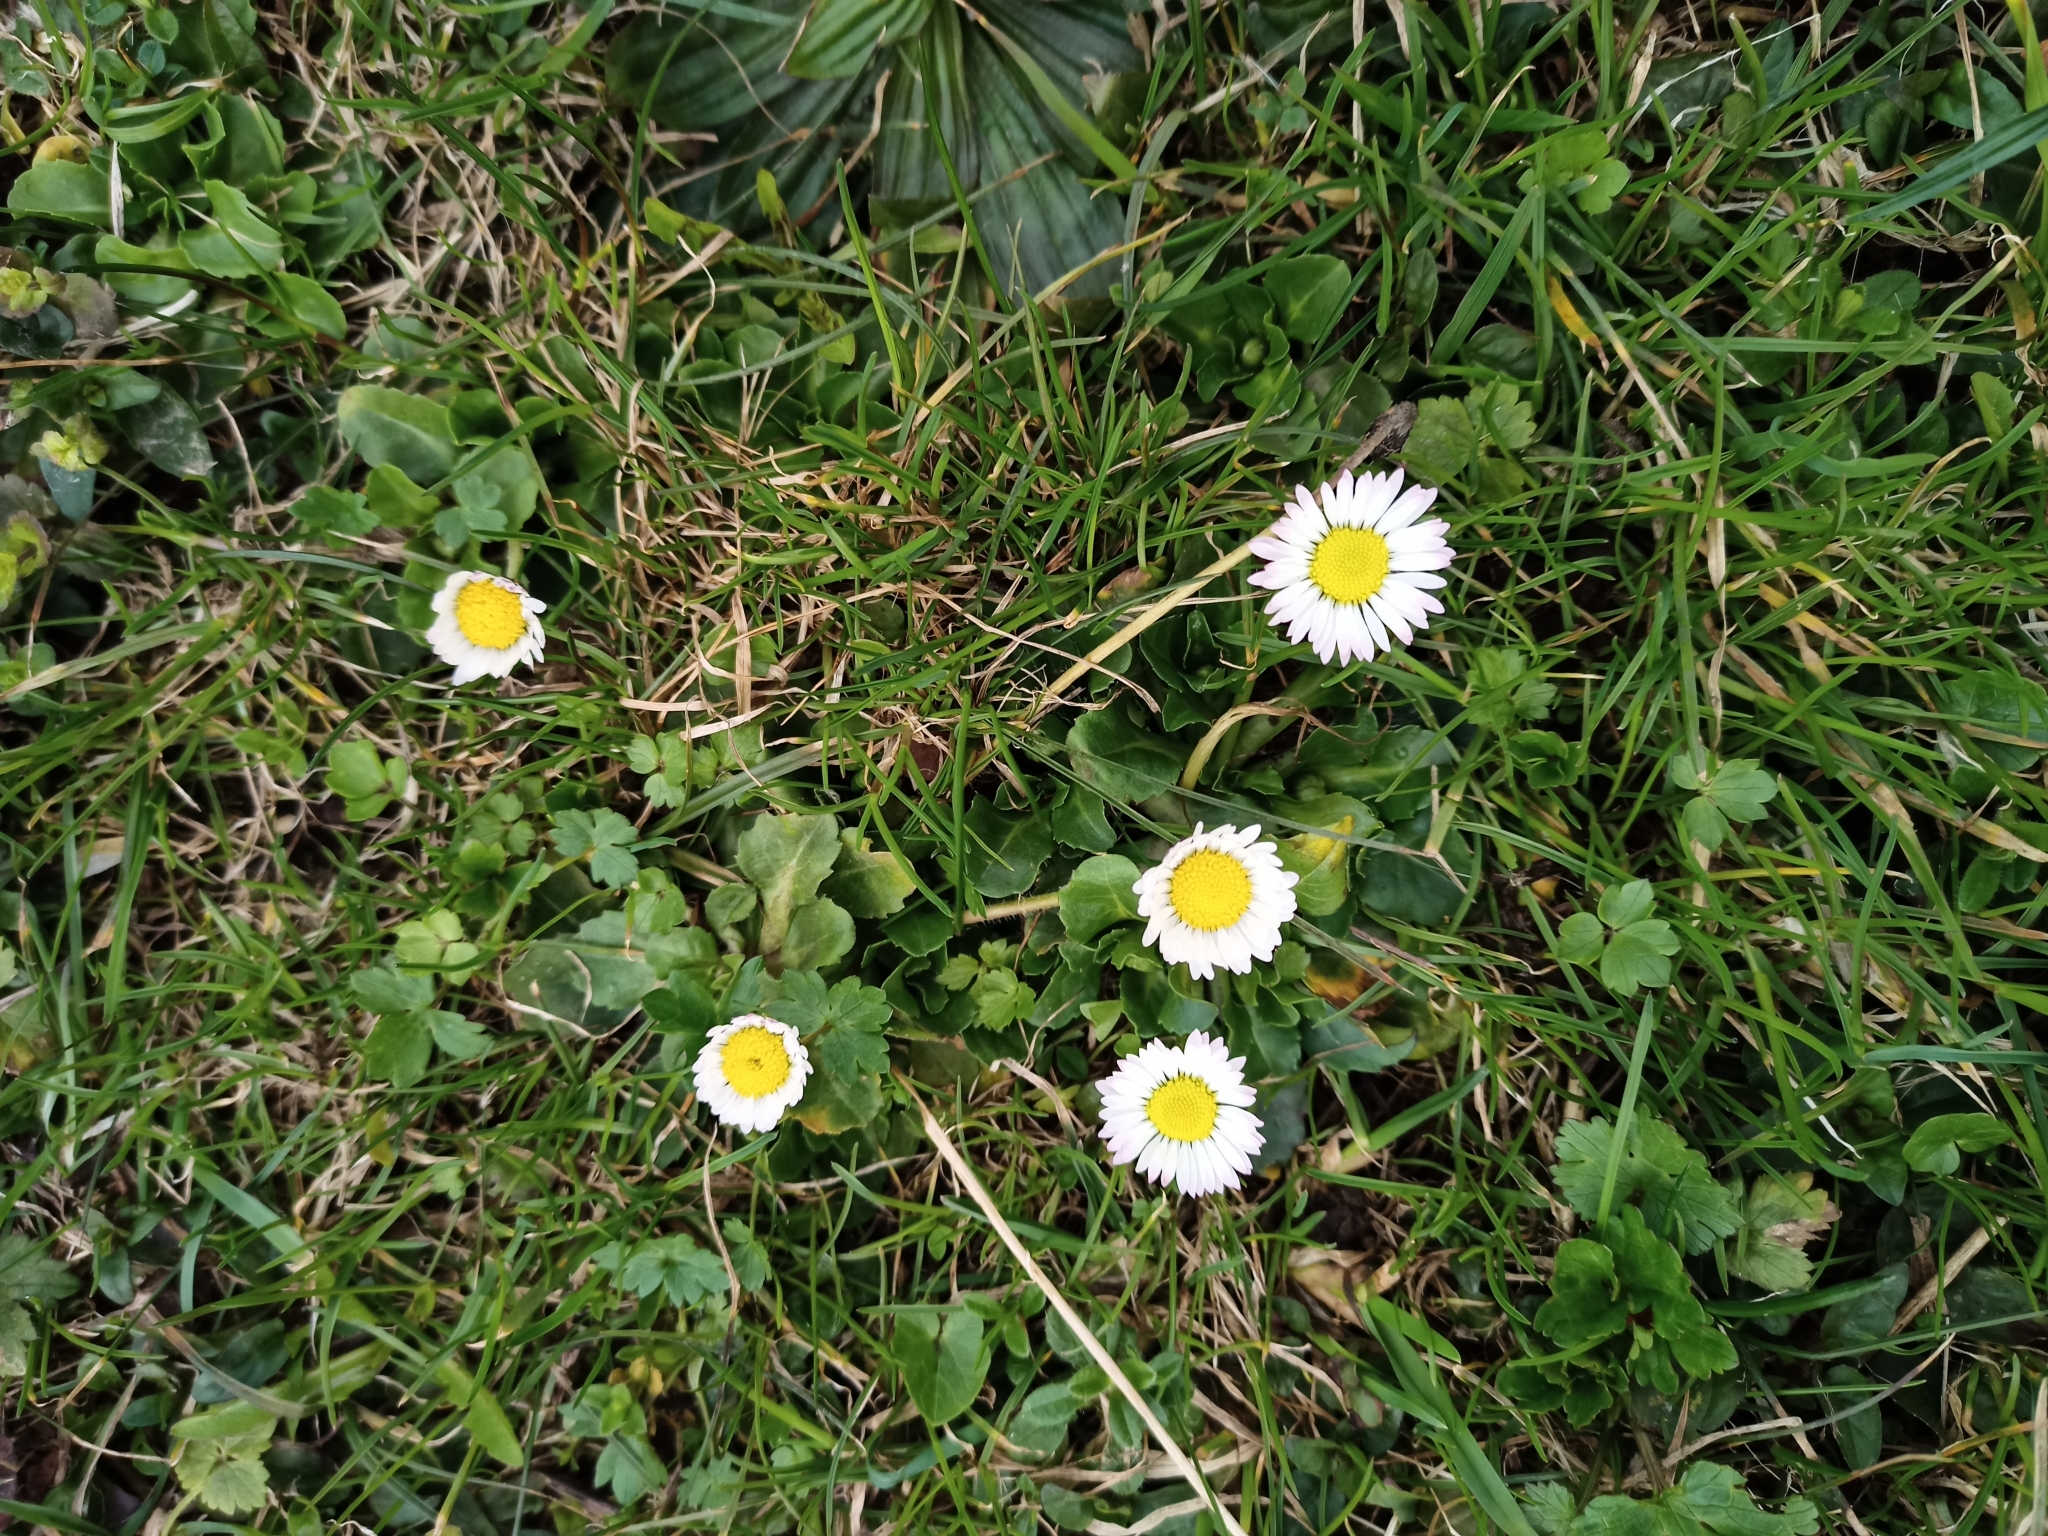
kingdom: Plantae
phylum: Tracheophyta
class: Magnoliopsida
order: Asterales
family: Asteraceae
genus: Bellis
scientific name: Bellis perennis
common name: Lawndaisy
